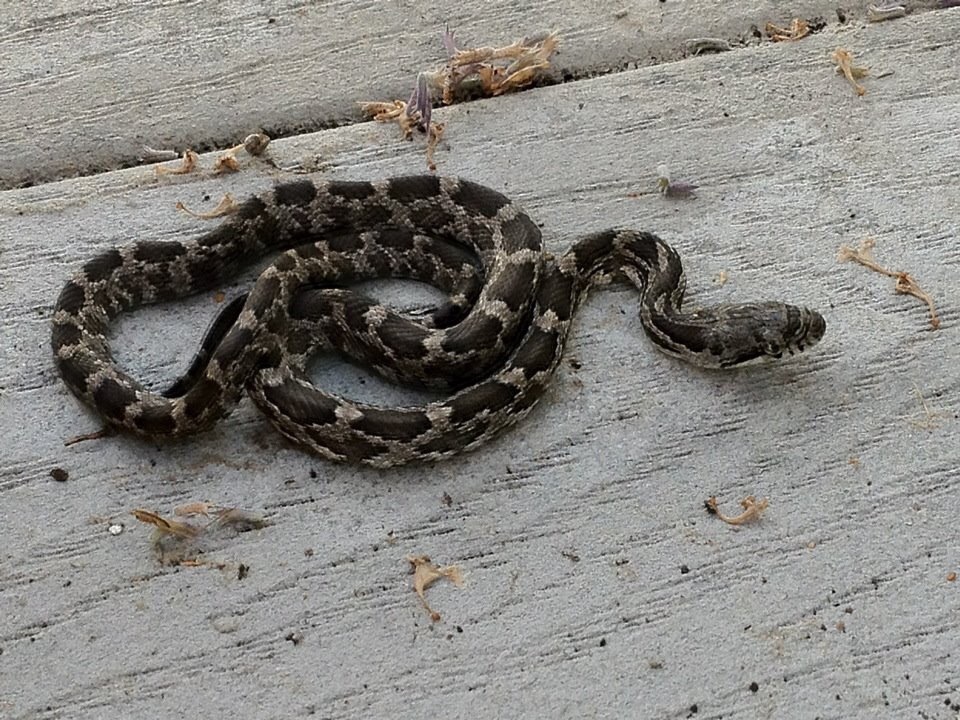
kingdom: Animalia
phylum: Chordata
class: Squamata
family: Colubridae
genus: Pantherophis
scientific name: Pantherophis alleghaniensis
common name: Eastern rat snake
